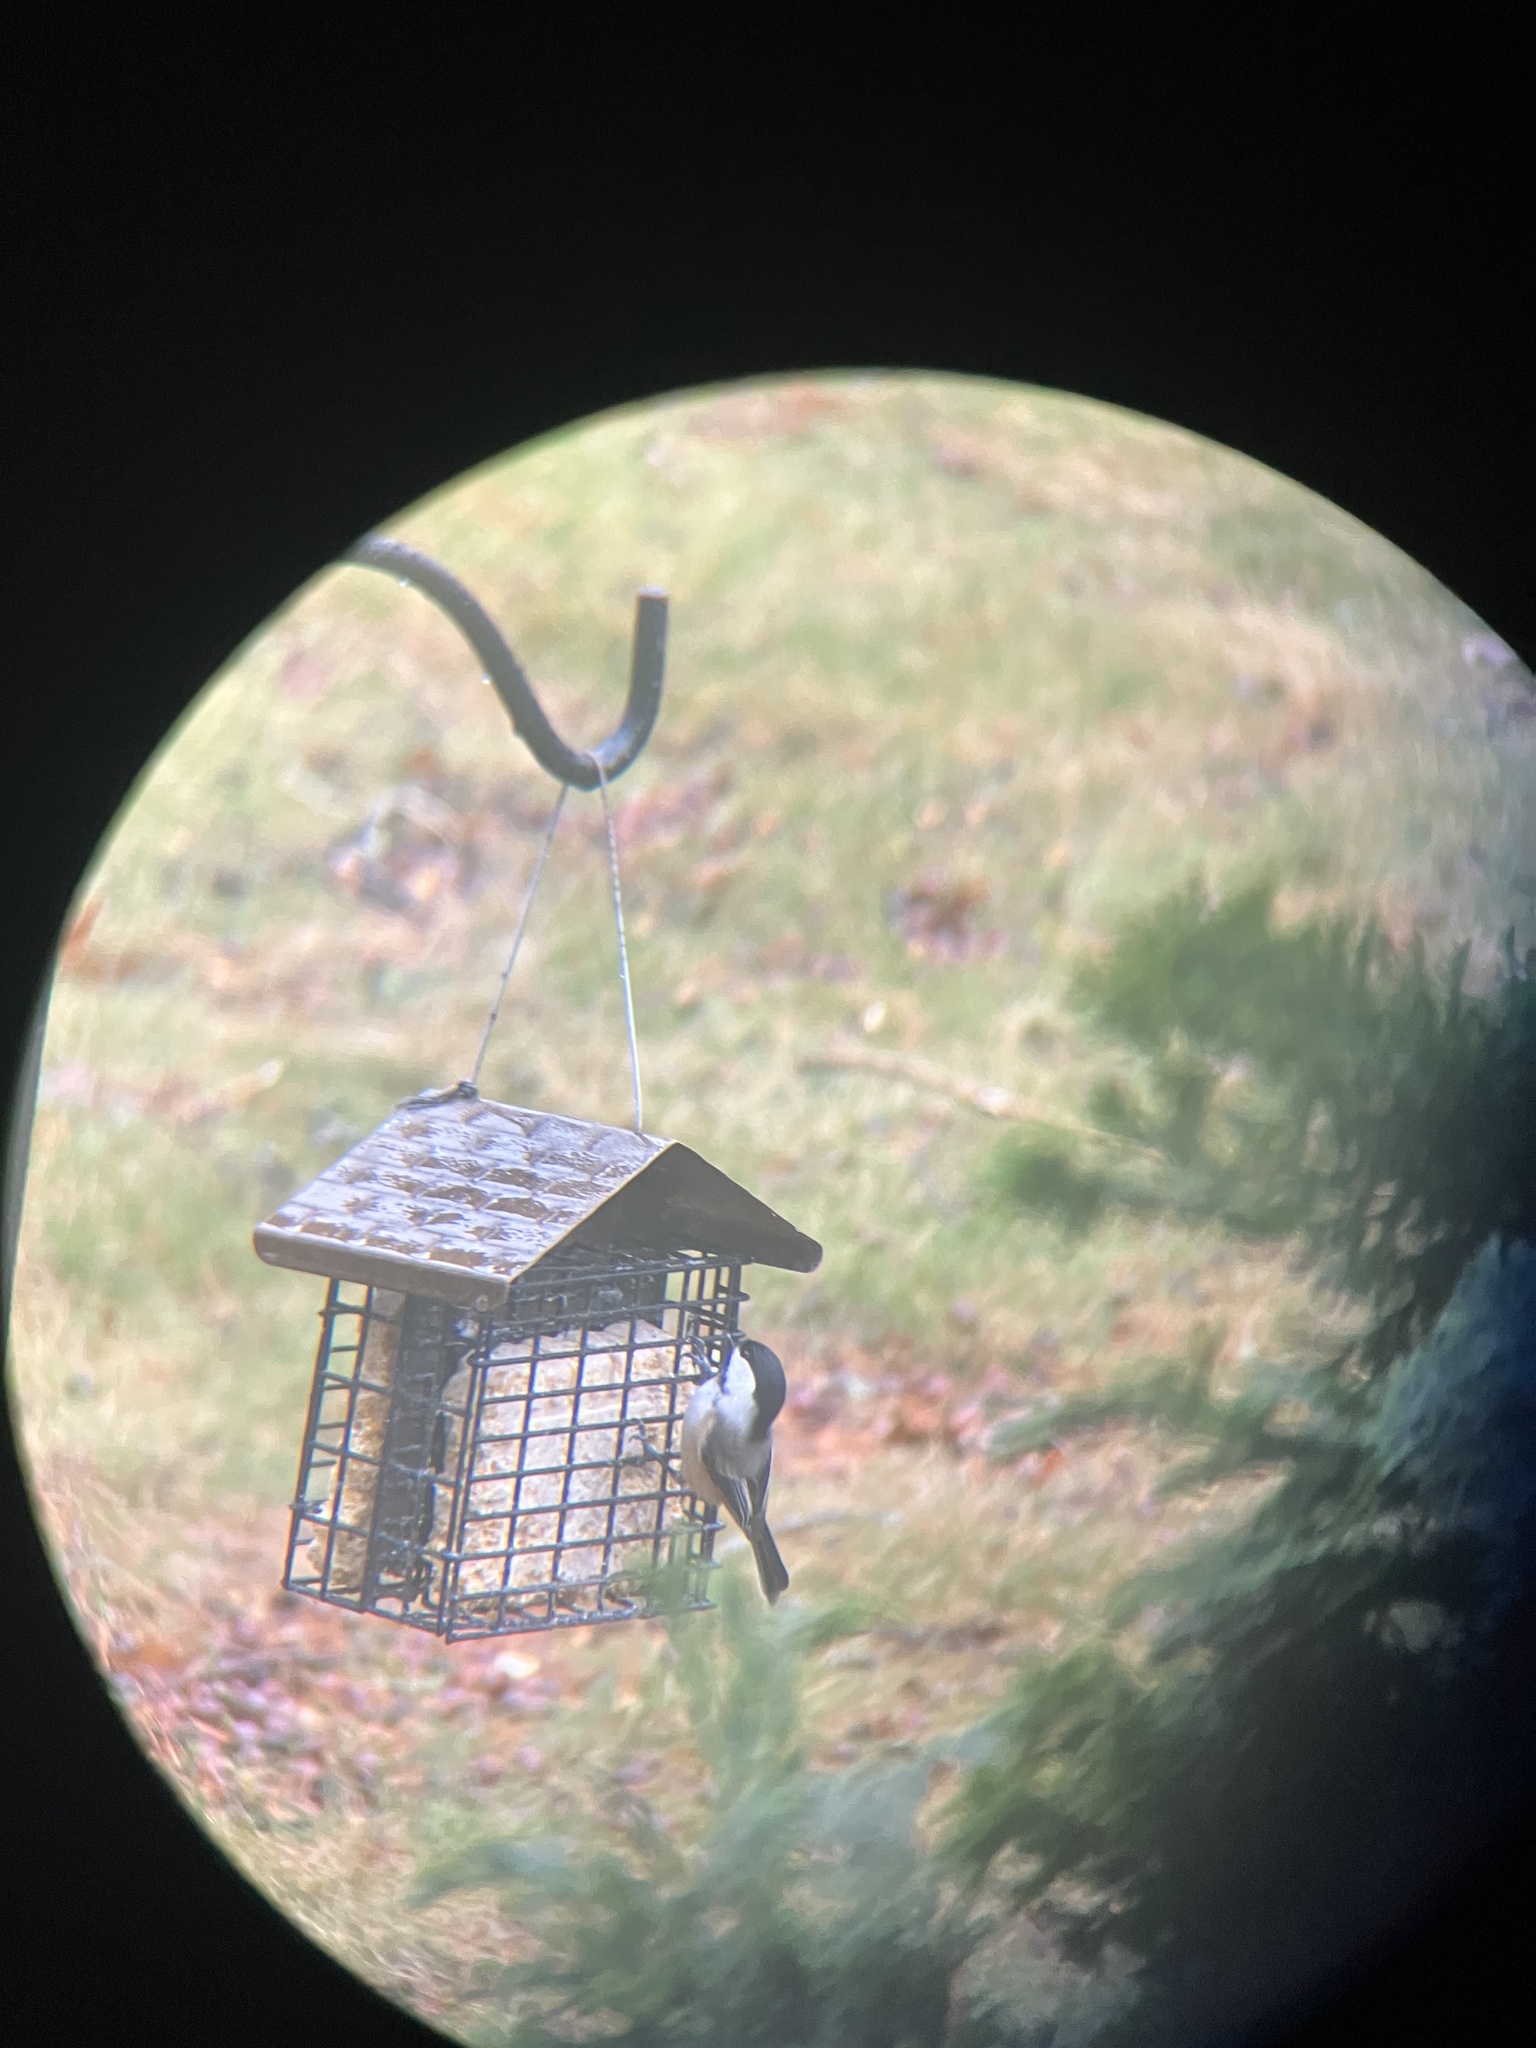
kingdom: Animalia
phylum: Chordata
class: Aves
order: Passeriformes
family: Paridae
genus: Poecile
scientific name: Poecile atricapillus
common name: Black-capped chickadee
